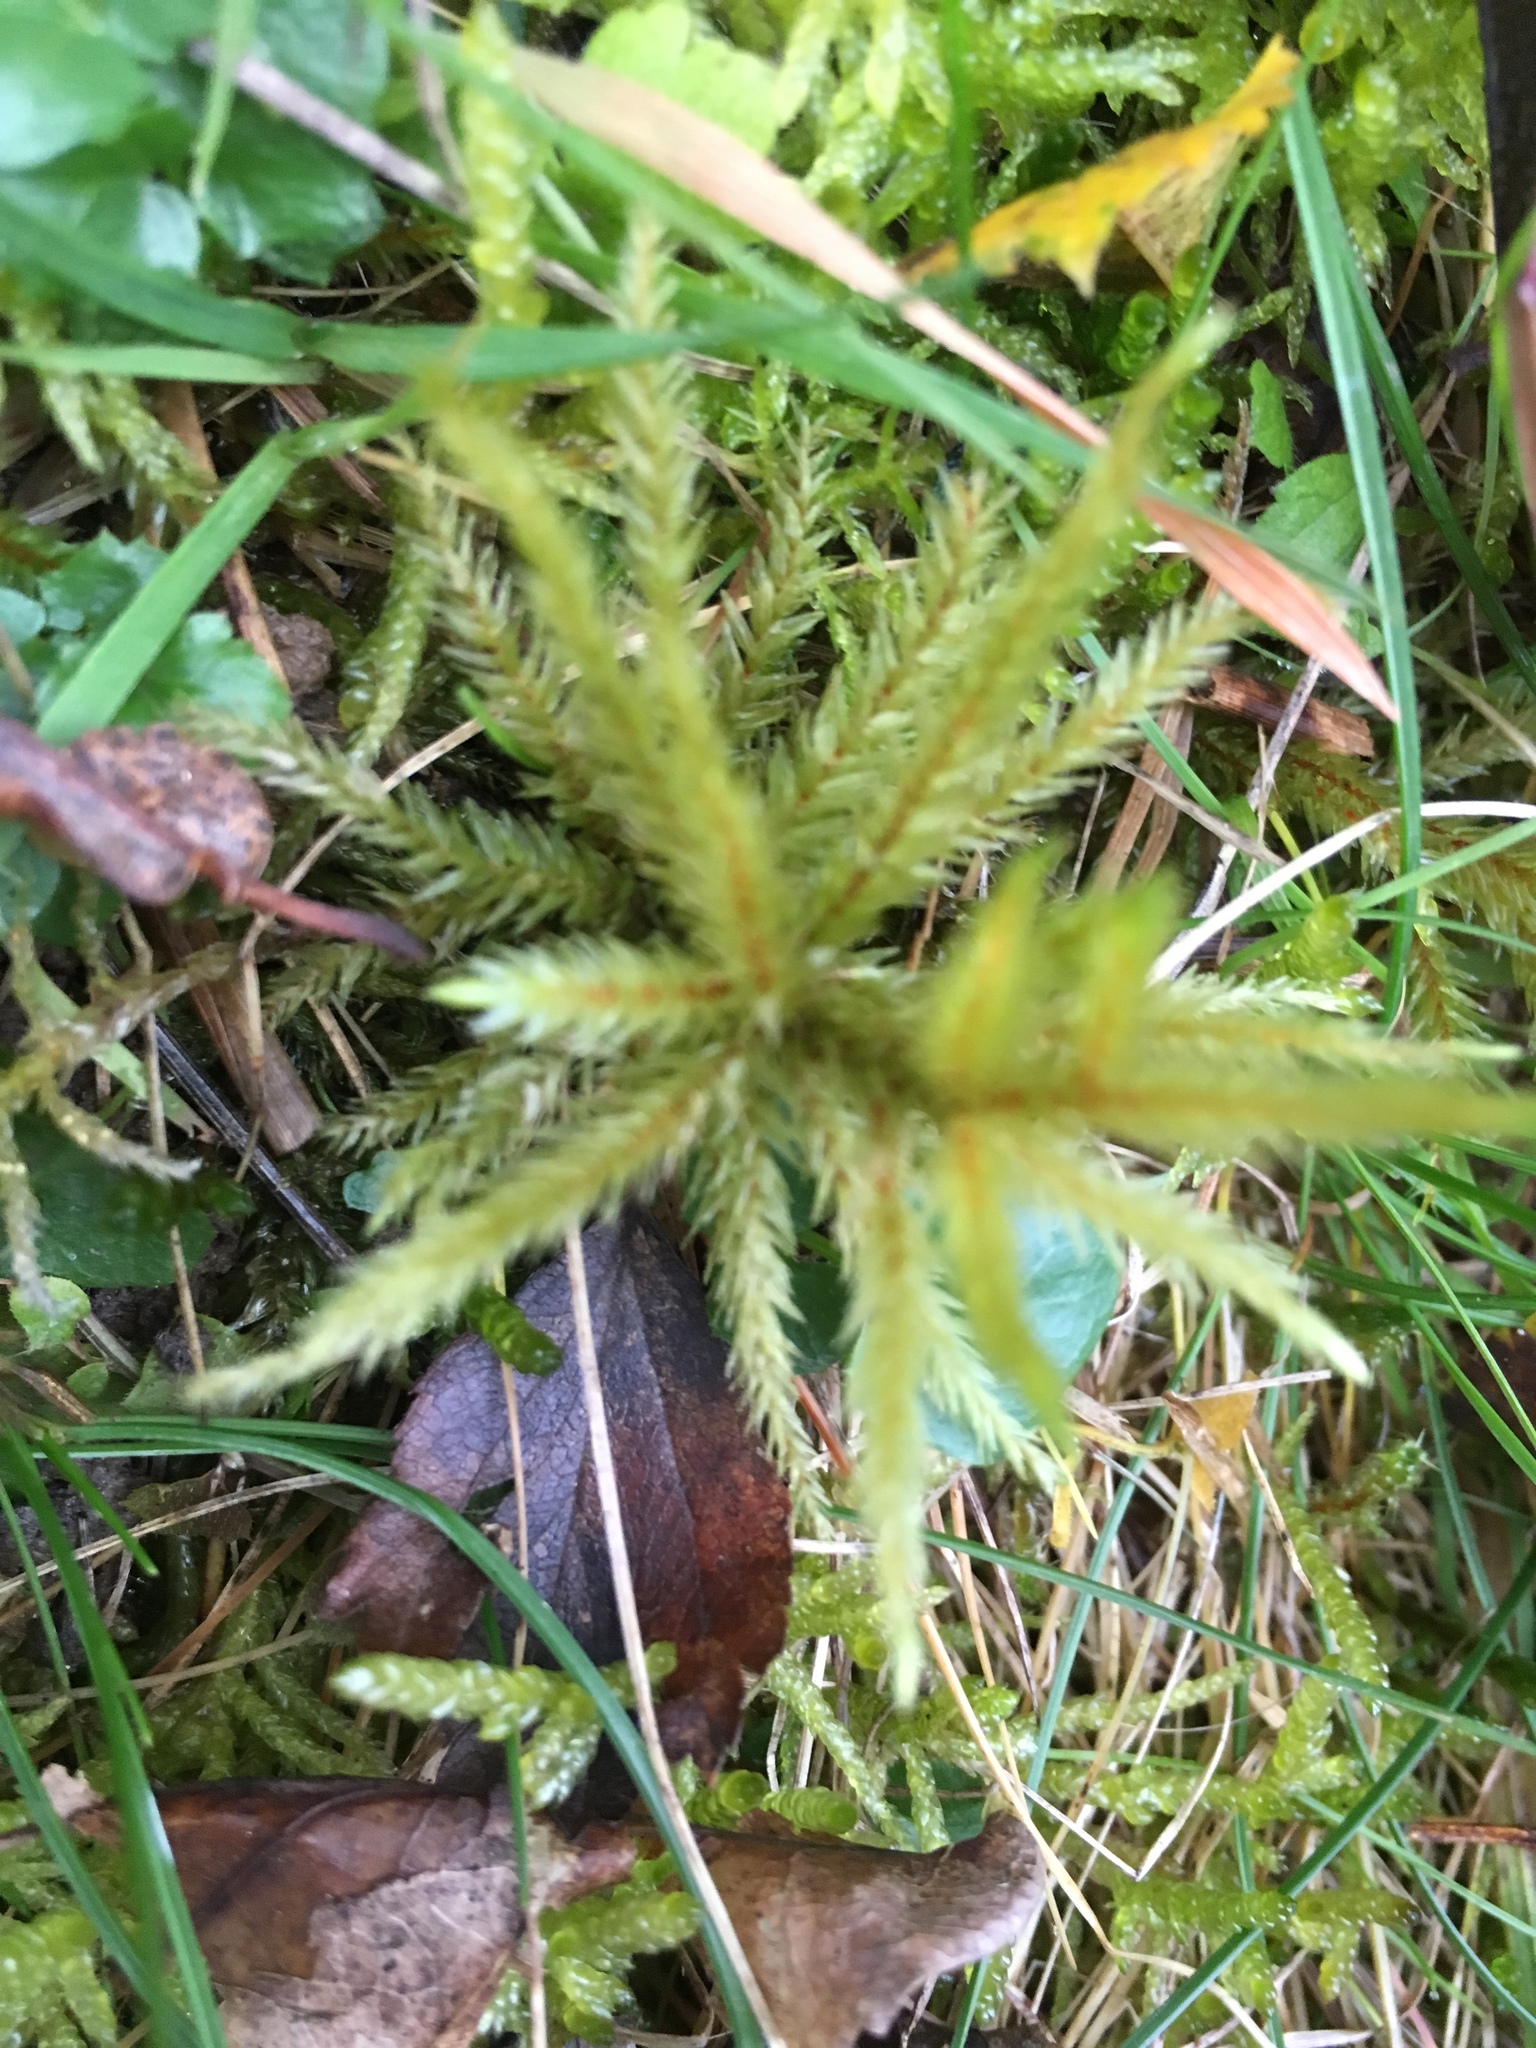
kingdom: Plantae
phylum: Bryophyta
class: Bryopsida
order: Hypnales
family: Climaciaceae
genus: Climacium
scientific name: Climacium dendroides
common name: Northern tree moss
